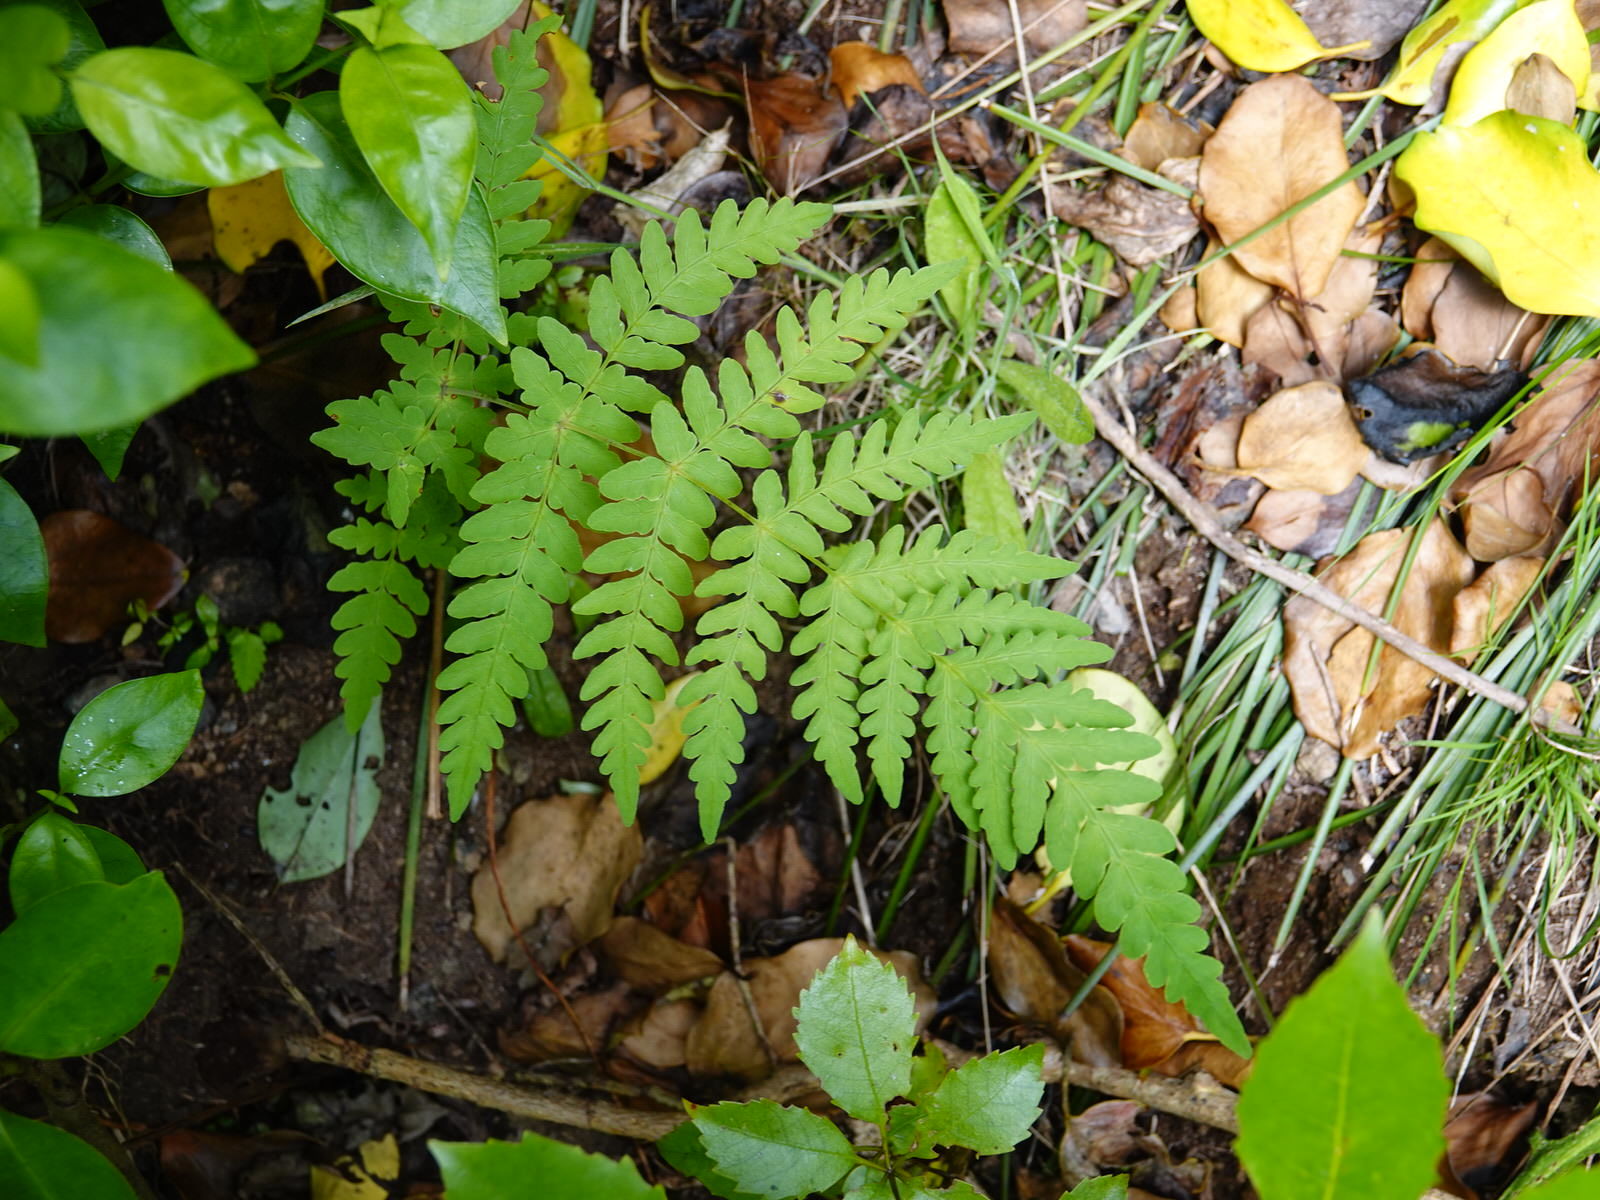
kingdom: Plantae
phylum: Tracheophyta
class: Polypodiopsida
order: Polypodiales
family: Dennstaedtiaceae
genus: Histiopteris
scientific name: Histiopteris incisa
